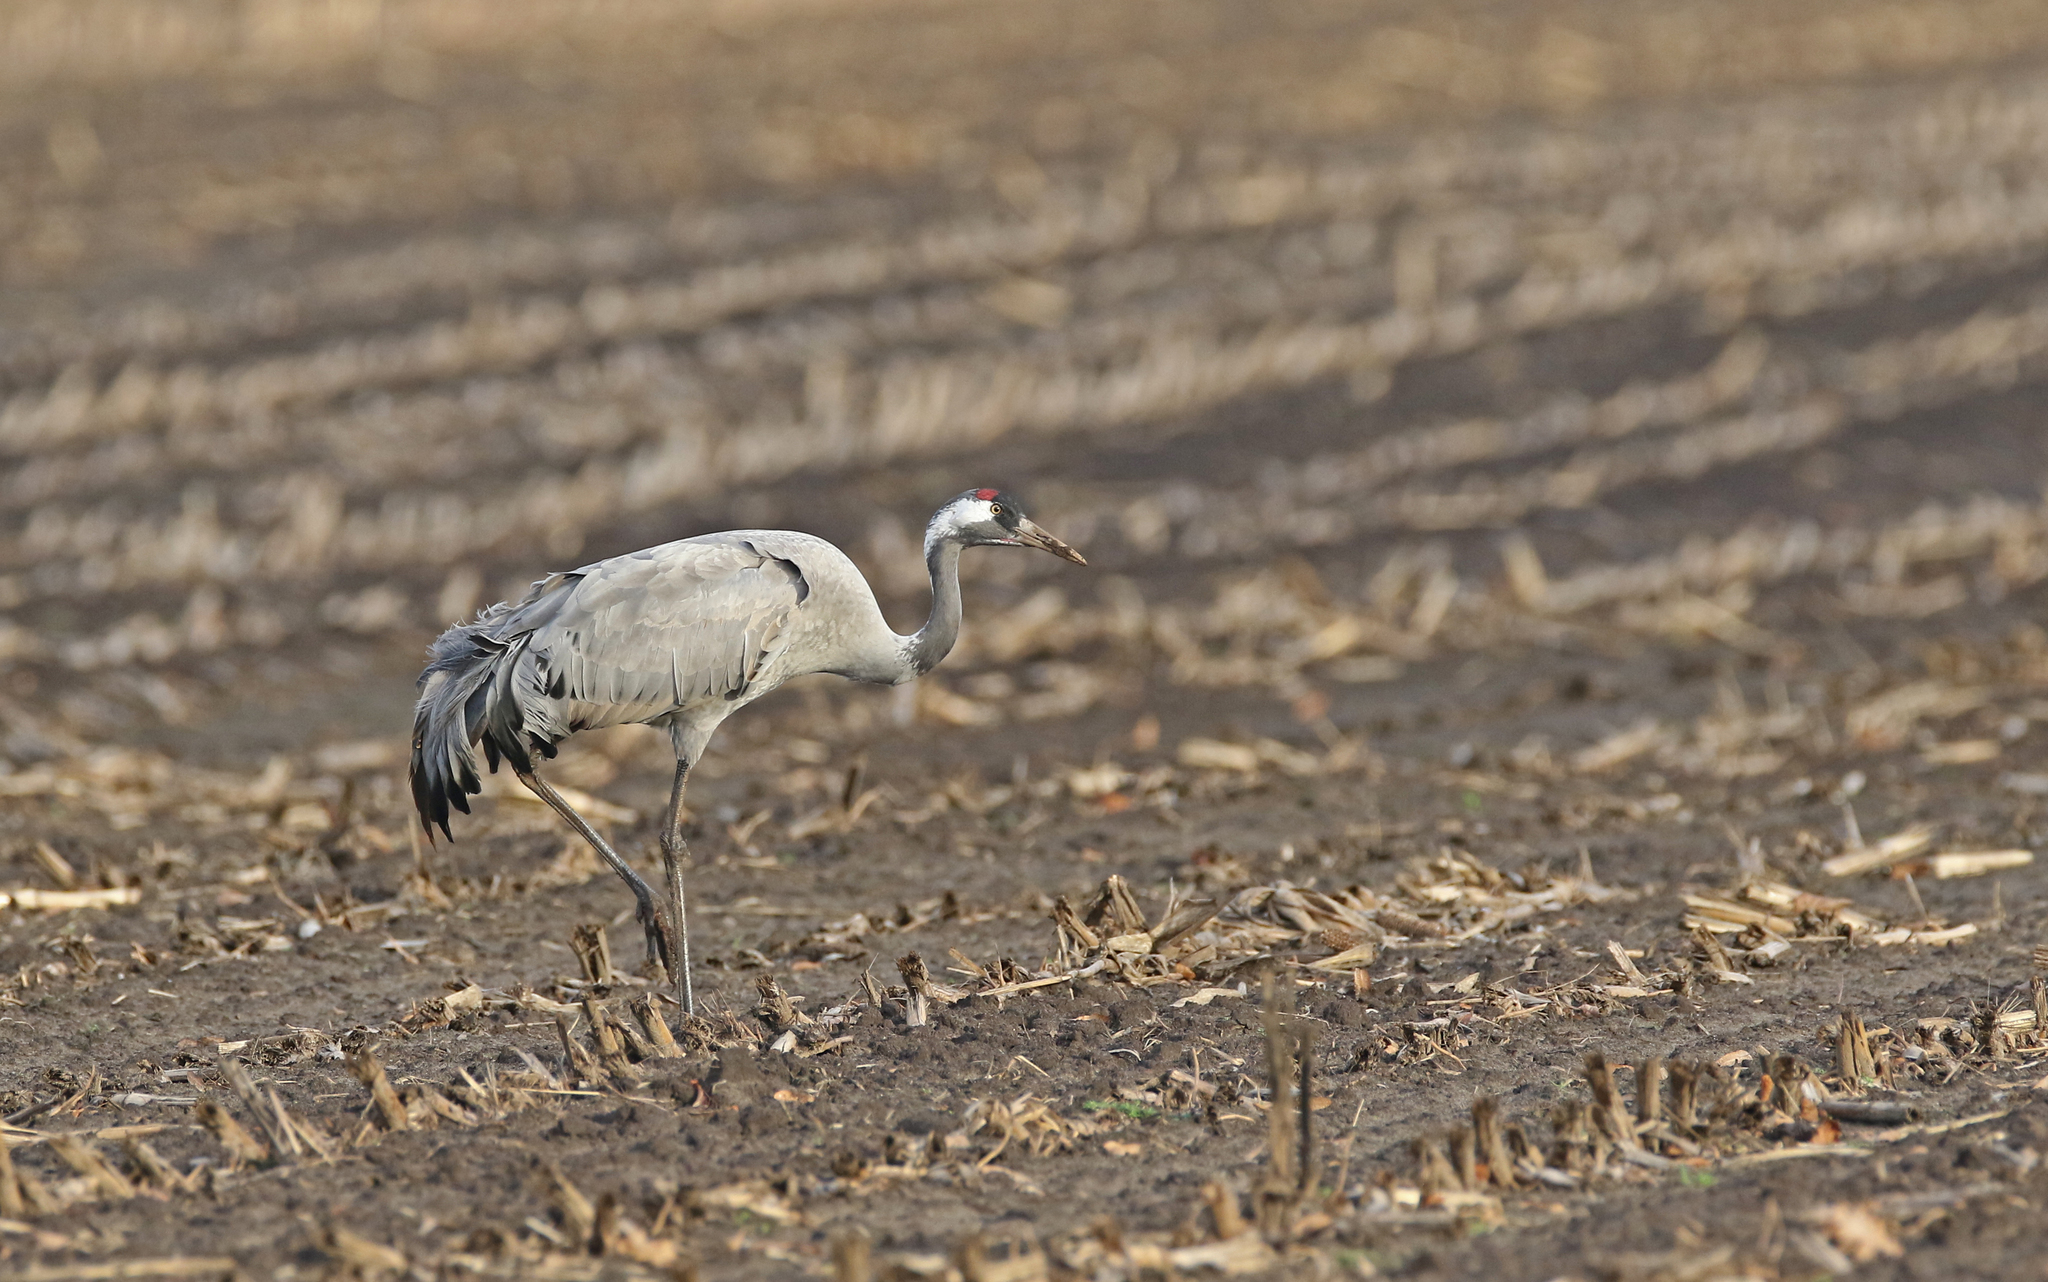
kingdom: Animalia
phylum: Chordata
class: Aves
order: Gruiformes
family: Gruidae
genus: Grus
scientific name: Grus grus
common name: Common crane
